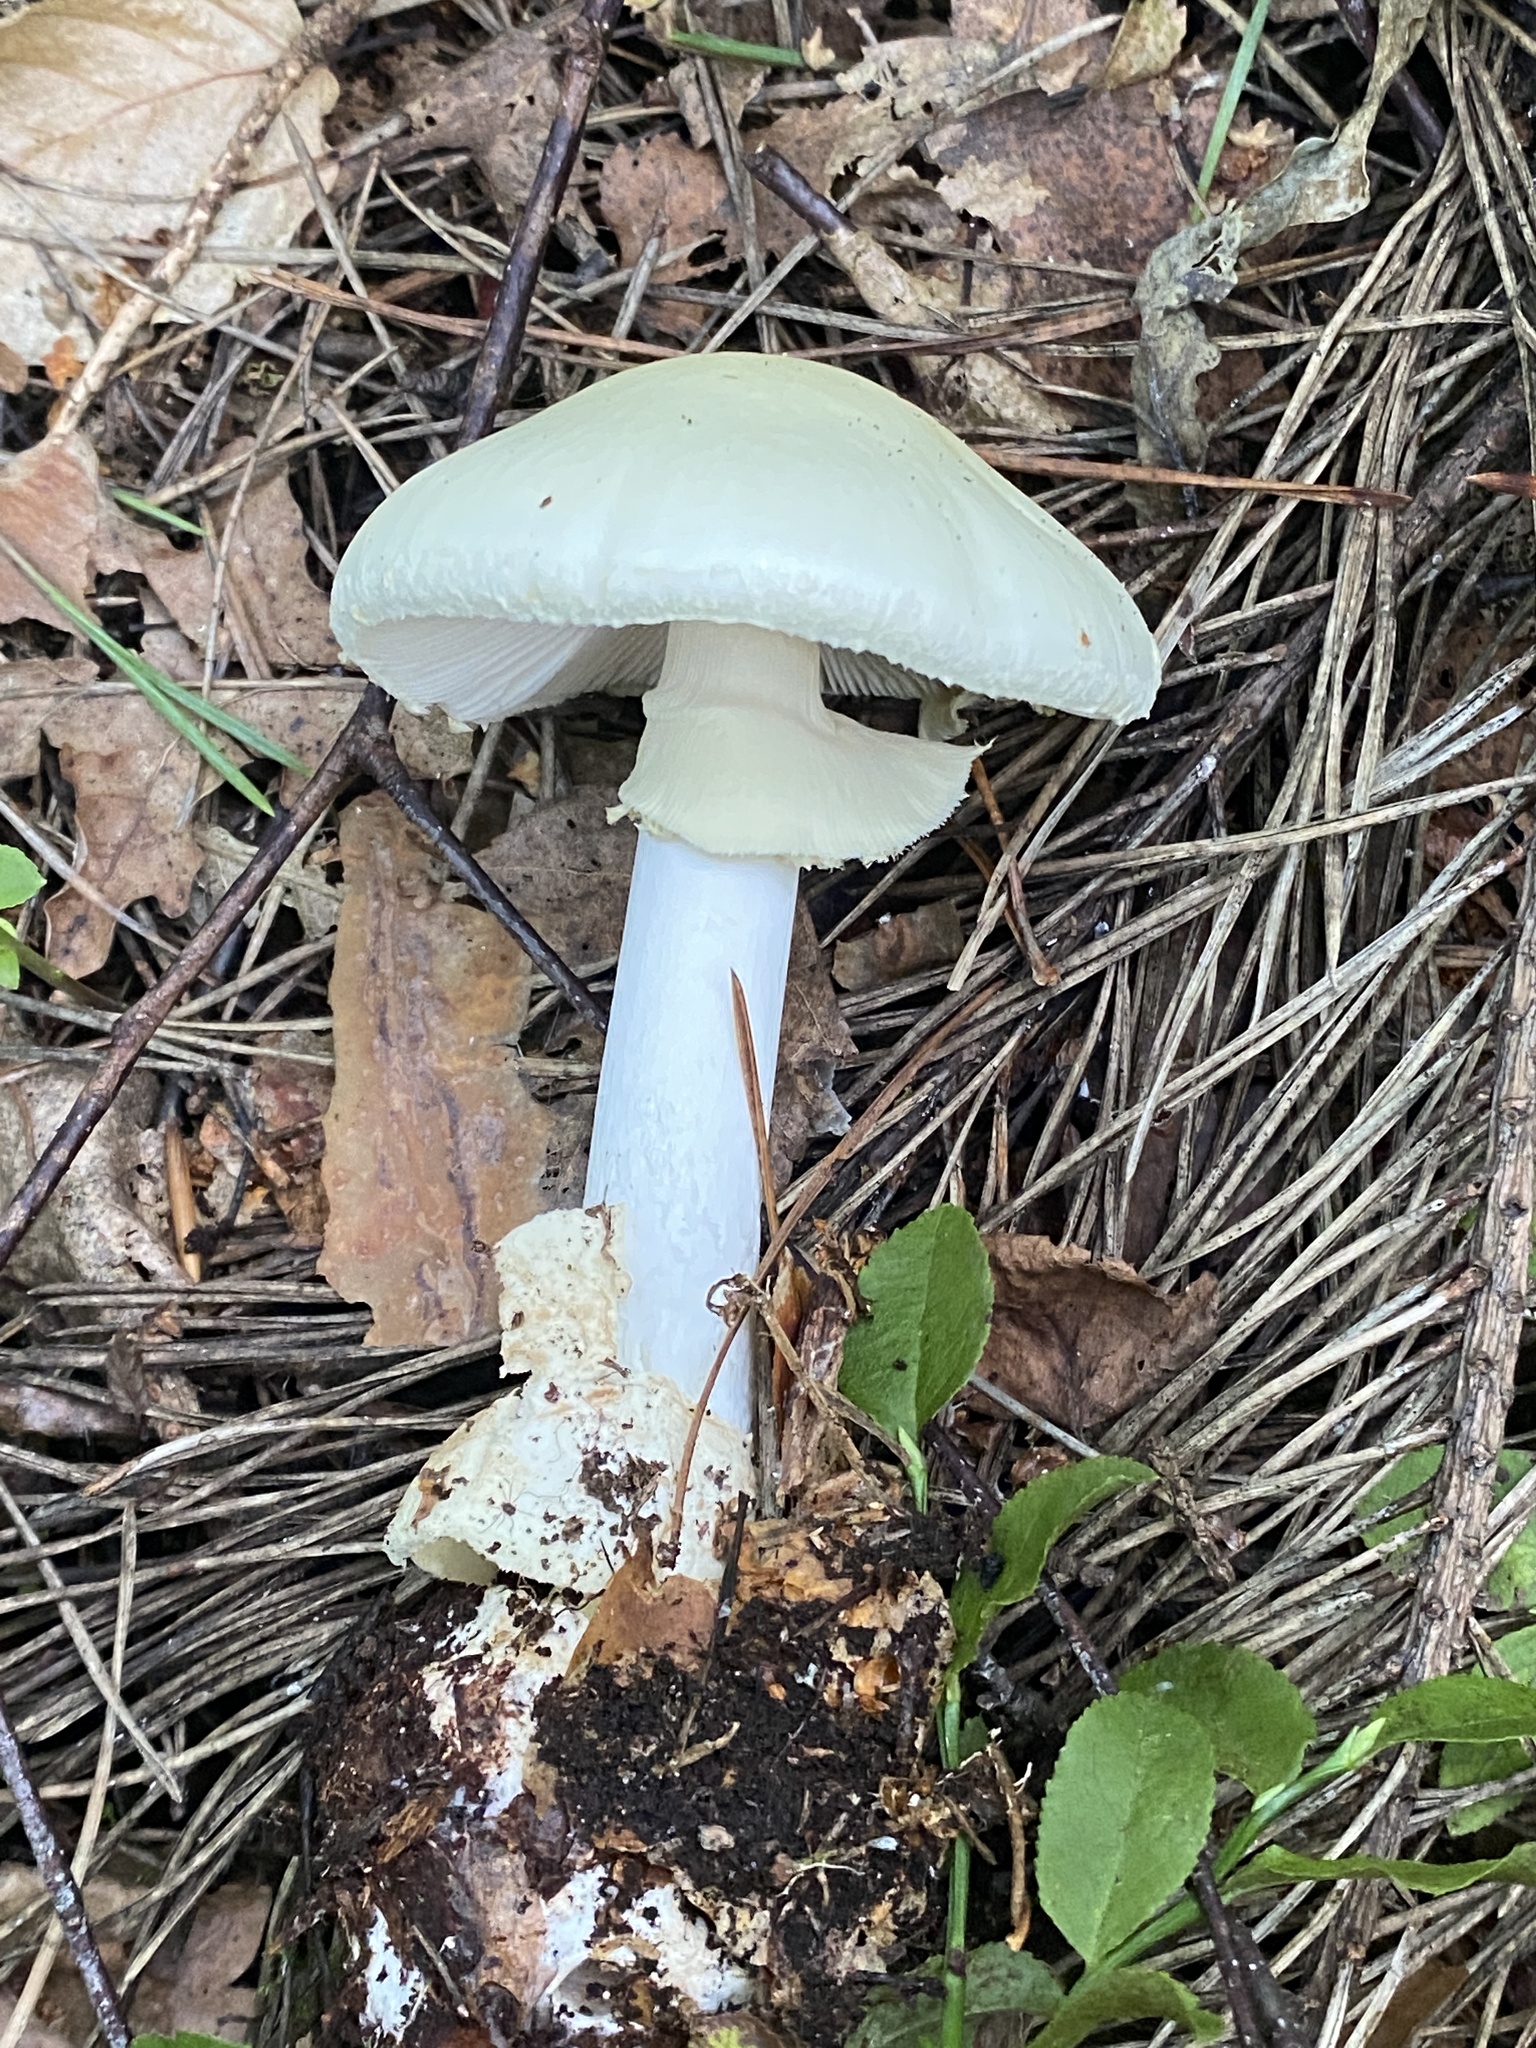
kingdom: Fungi
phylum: Basidiomycota
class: Agaricomycetes
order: Agaricales
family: Amanitaceae
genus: Amanita
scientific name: Amanita citrina
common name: False death-cap
